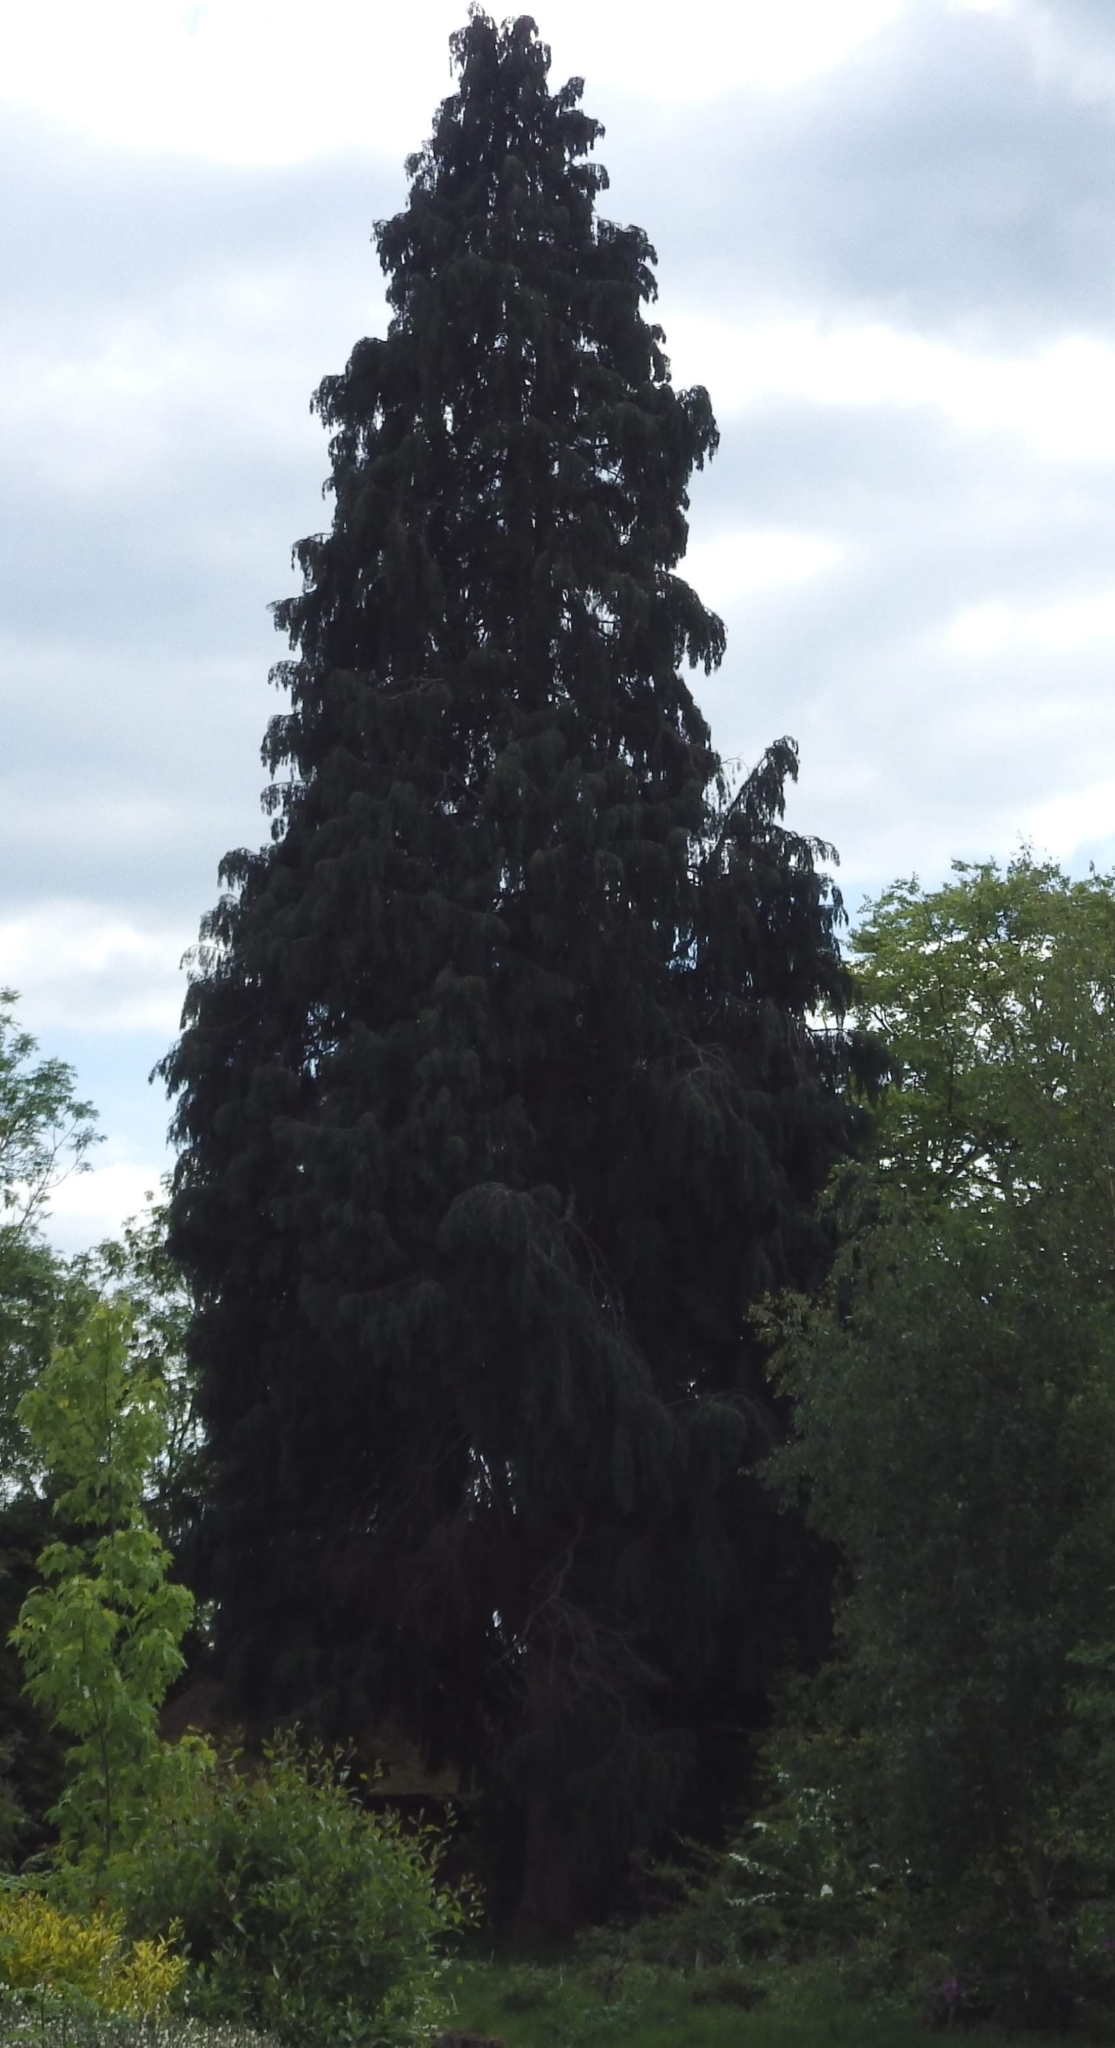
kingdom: Plantae
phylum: Tracheophyta
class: Pinopsida
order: Pinales
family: Cupressaceae
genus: Chamaecyparis
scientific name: Chamaecyparis lawsoniana
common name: Lawson's cypress
